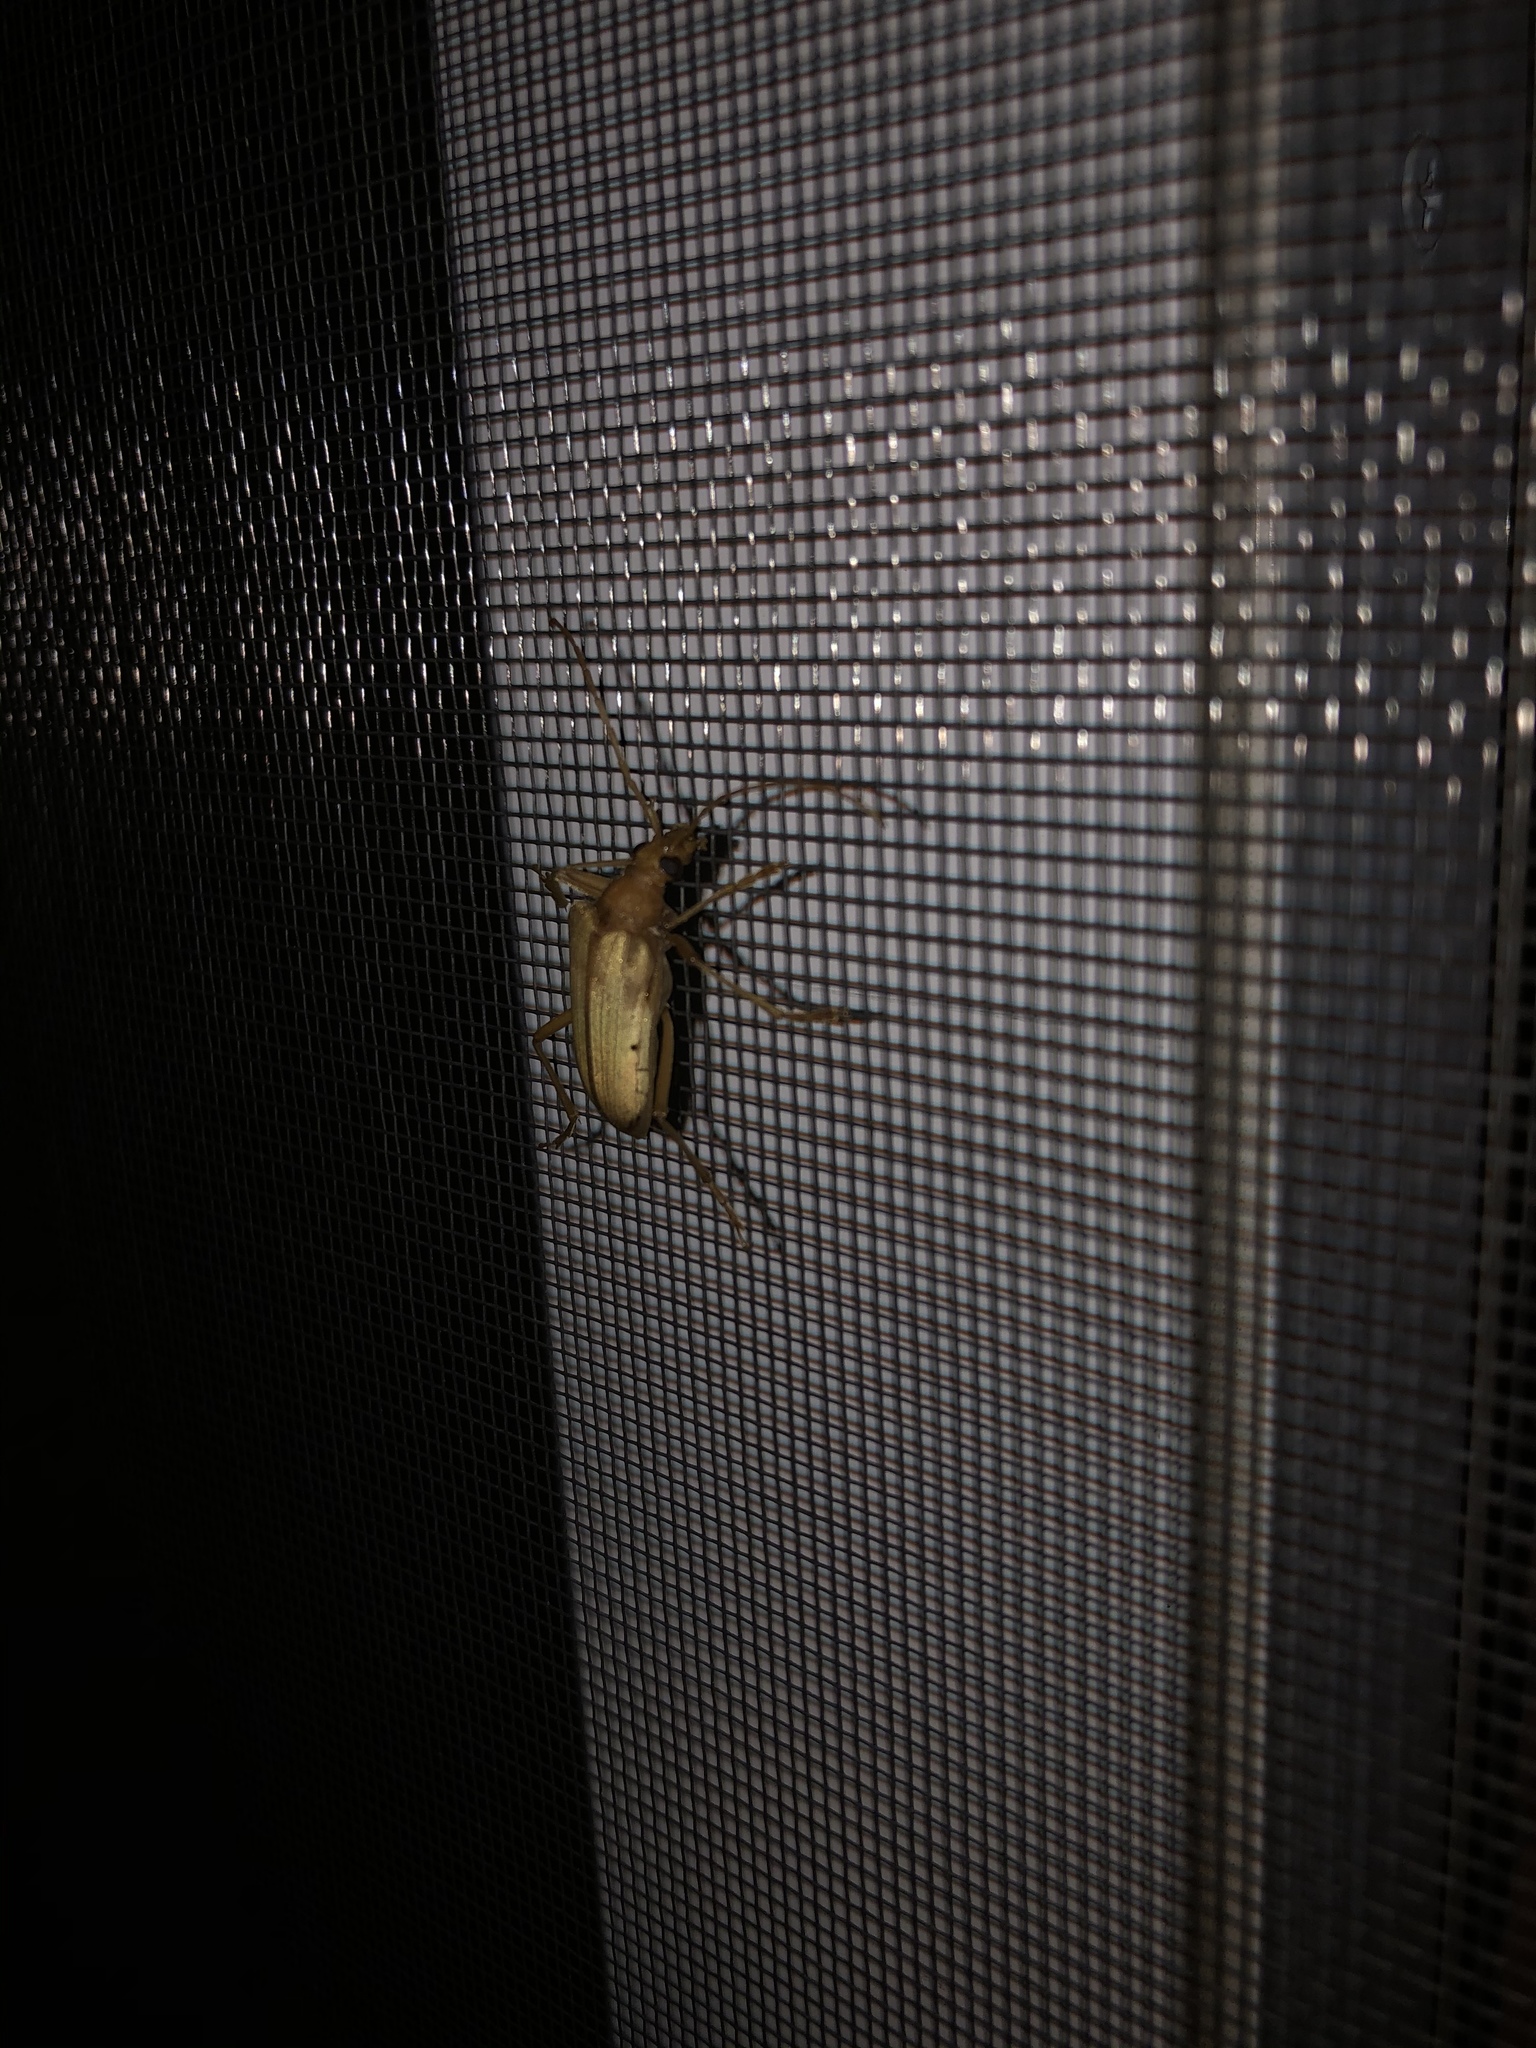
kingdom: Animalia
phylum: Arthropoda
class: Insecta
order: Coleoptera
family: Cerambycidae
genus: Centrodera
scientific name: Centrodera spurca
